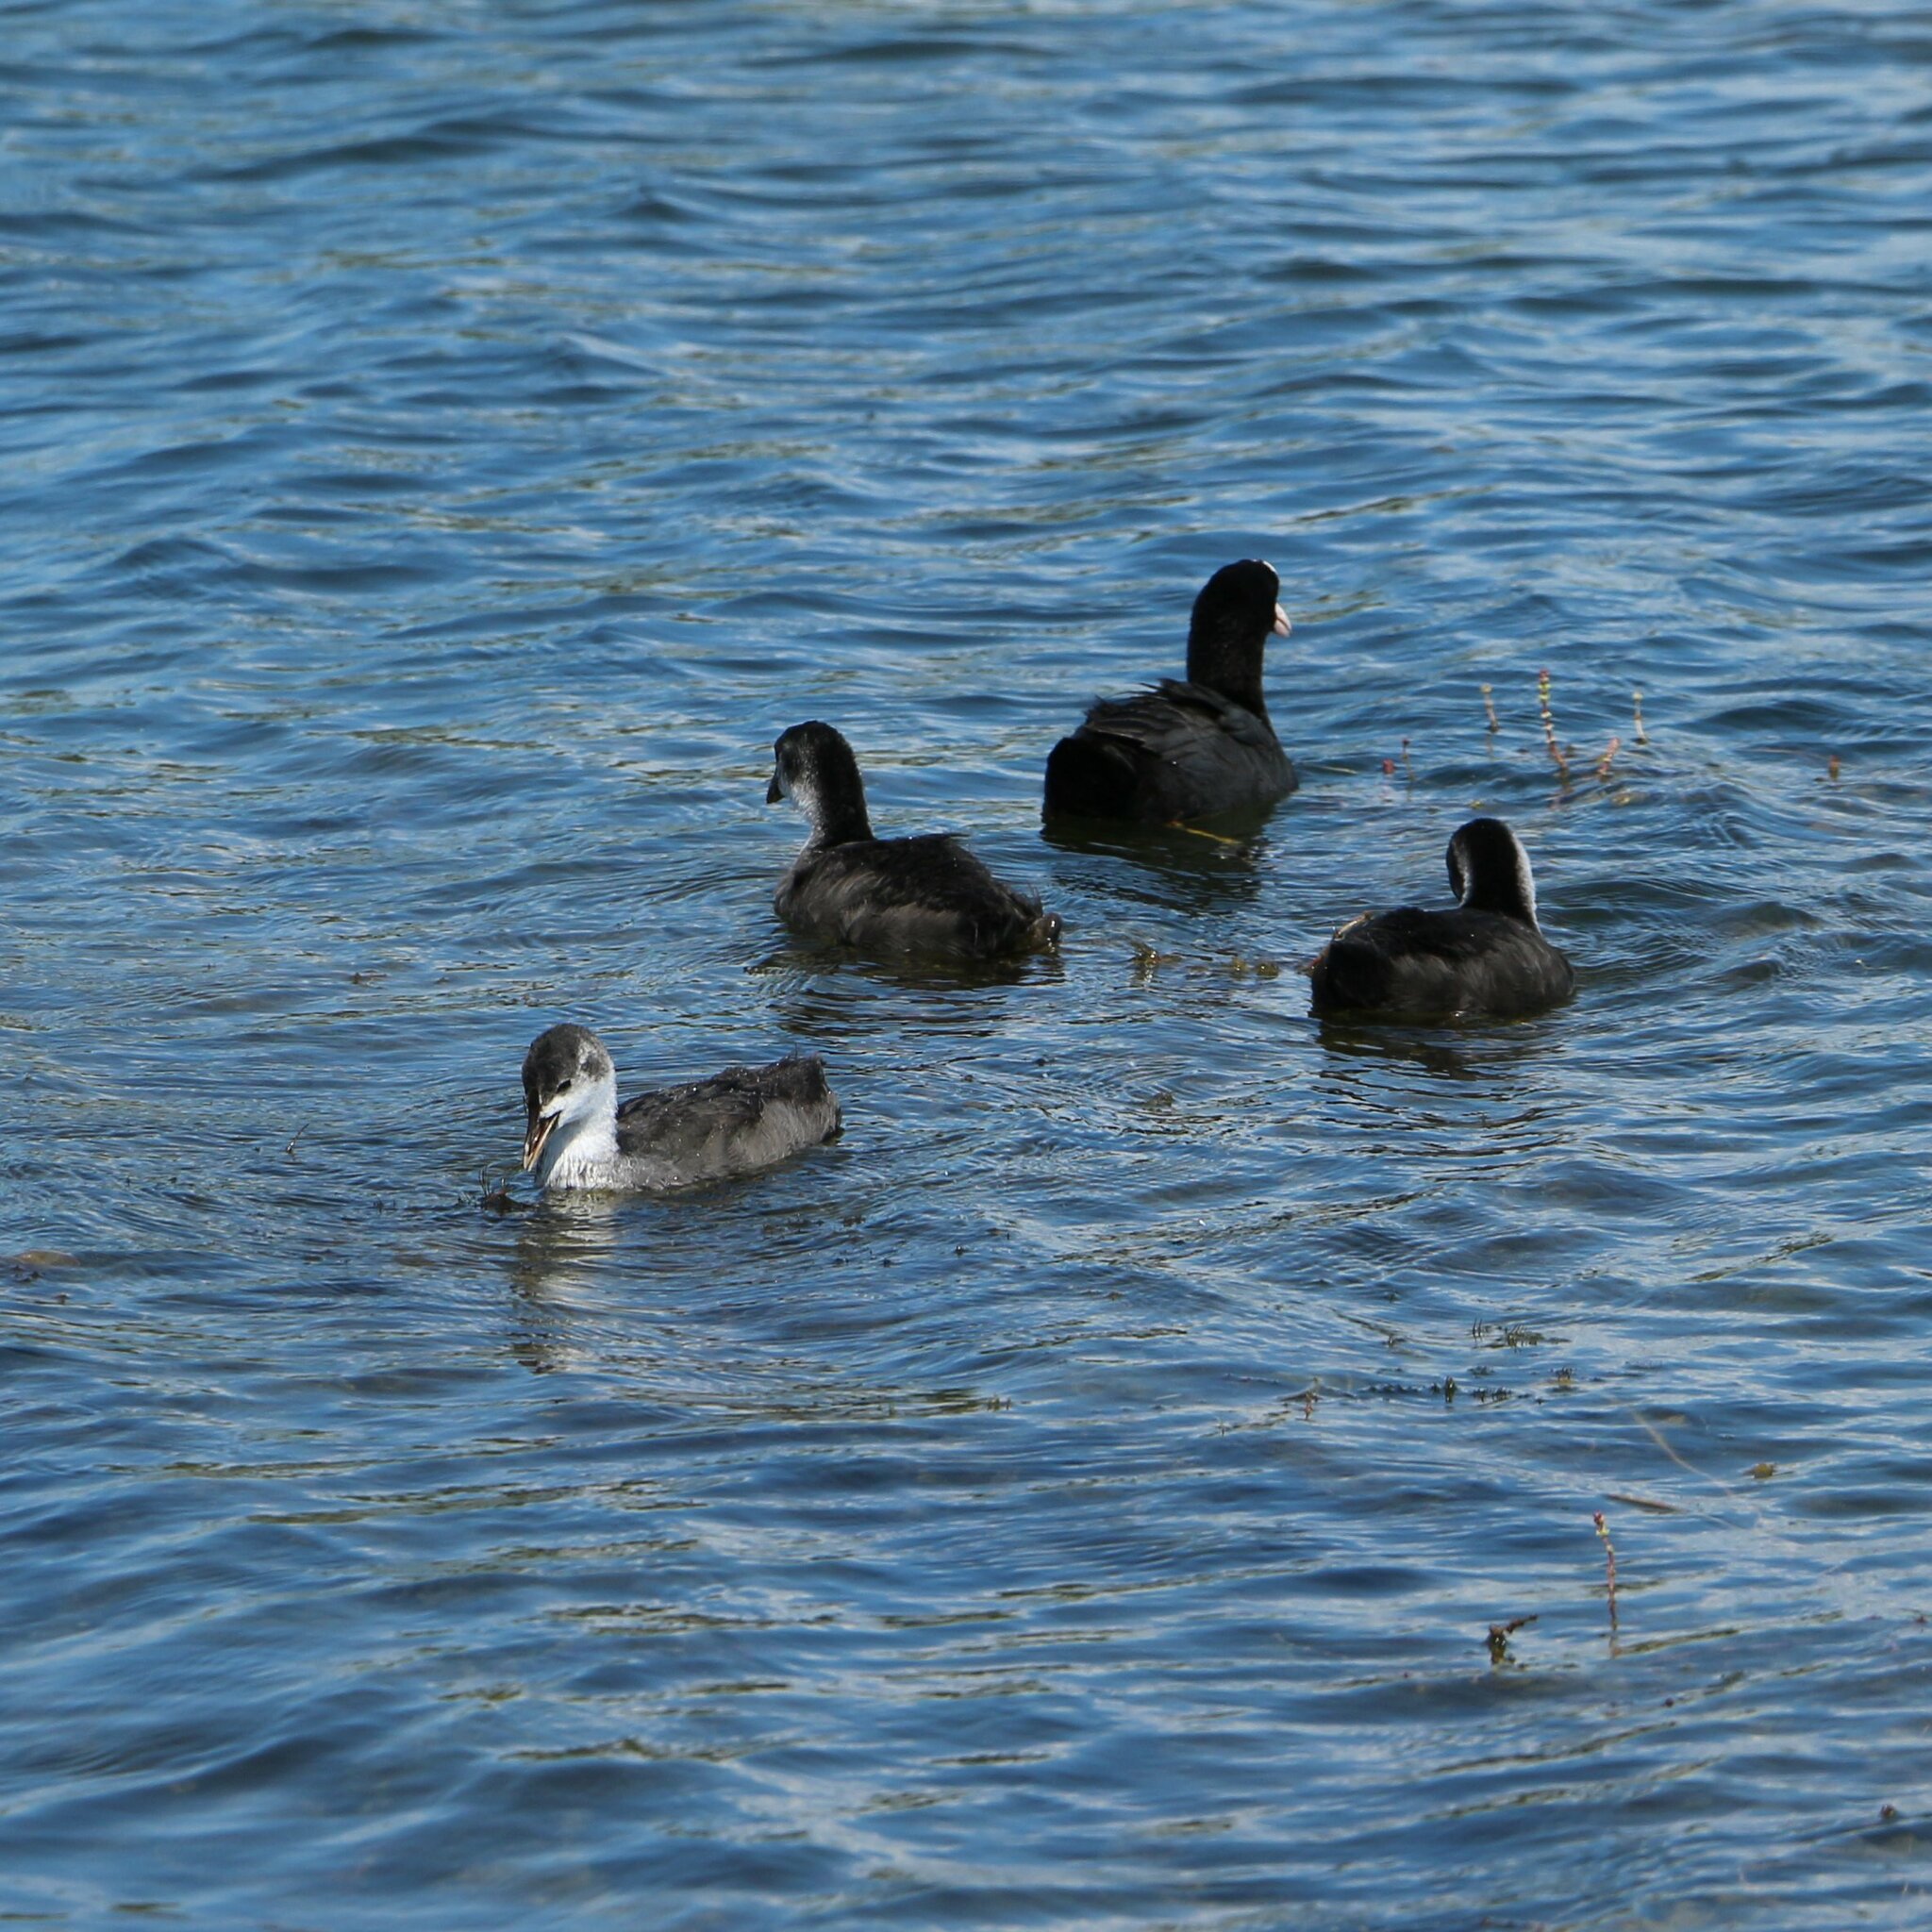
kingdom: Animalia
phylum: Chordata
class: Aves
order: Gruiformes
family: Rallidae
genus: Fulica
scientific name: Fulica atra
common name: Eurasian coot
